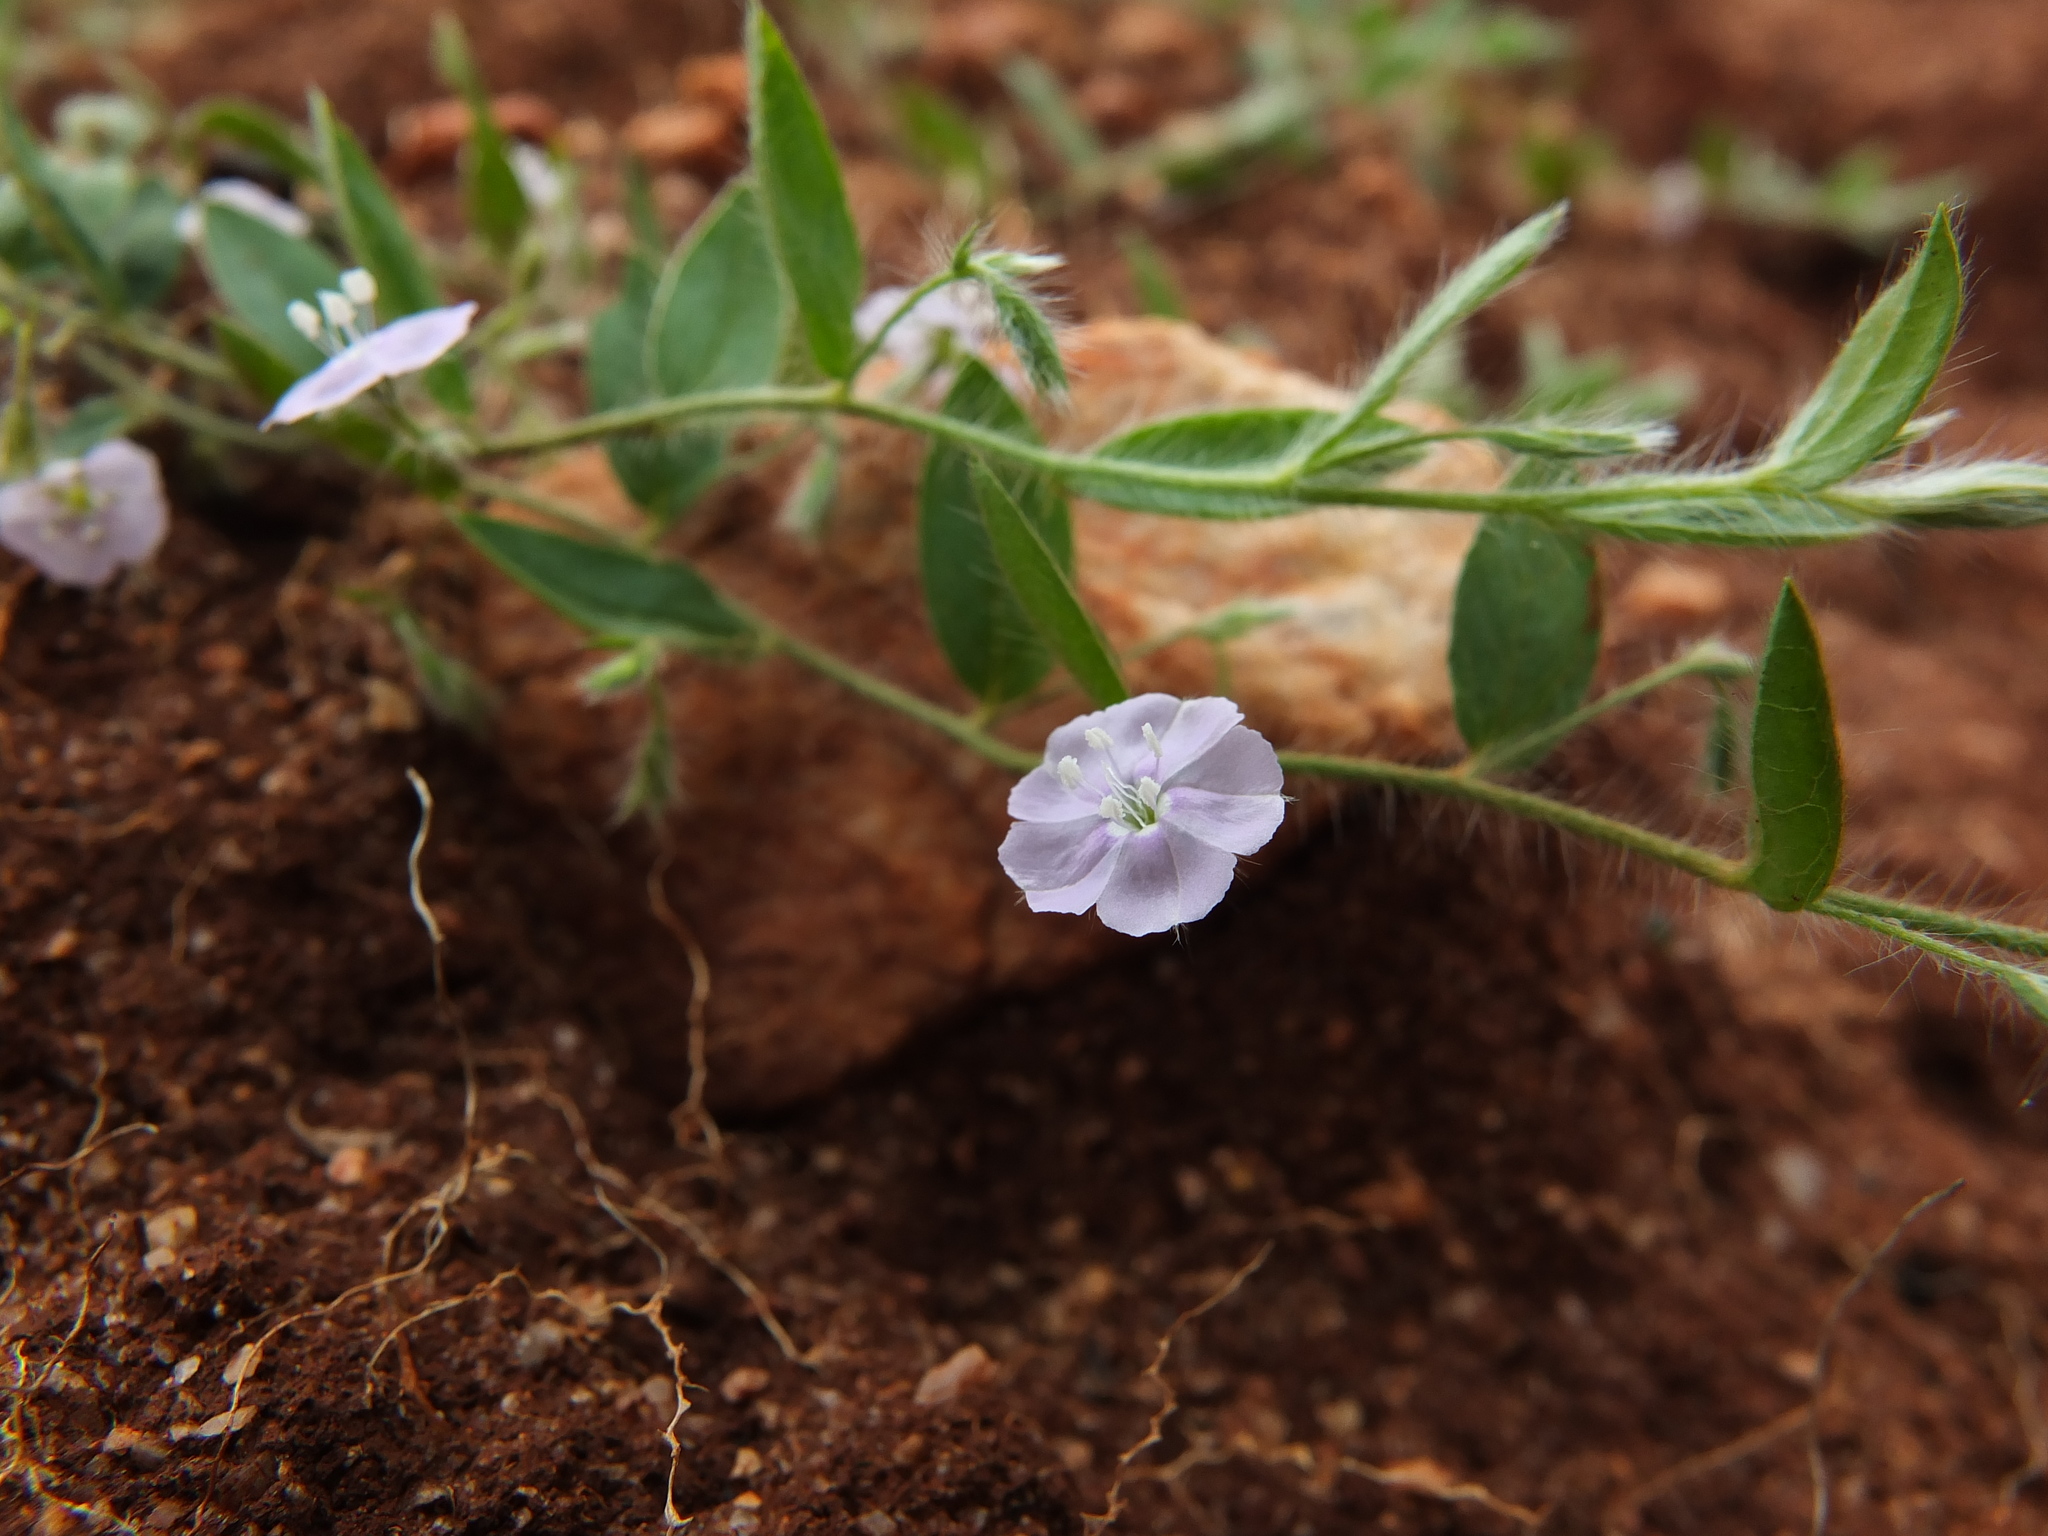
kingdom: Plantae
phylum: Tracheophyta
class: Magnoliopsida
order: Solanales
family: Convolvulaceae
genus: Evolvulus
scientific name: Evolvulus alsinoides
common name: Slender dwarf morning-glory
